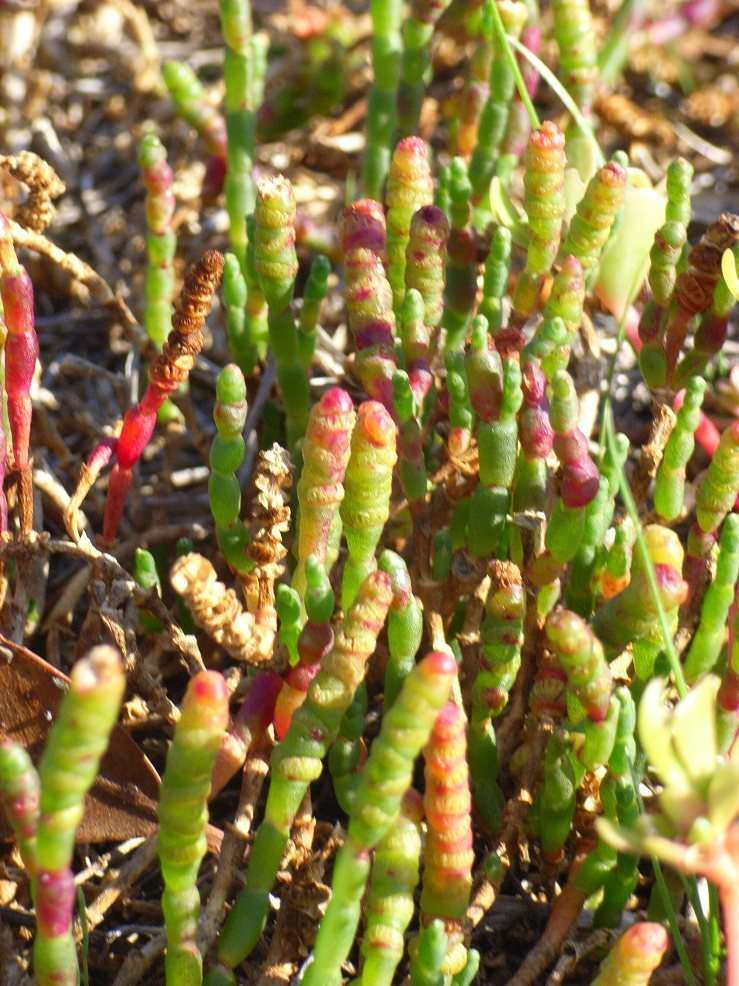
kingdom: Plantae
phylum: Tracheophyta
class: Magnoliopsida
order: Caryophyllales
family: Amaranthaceae
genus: Salicornia
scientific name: Salicornia quinqueflora
